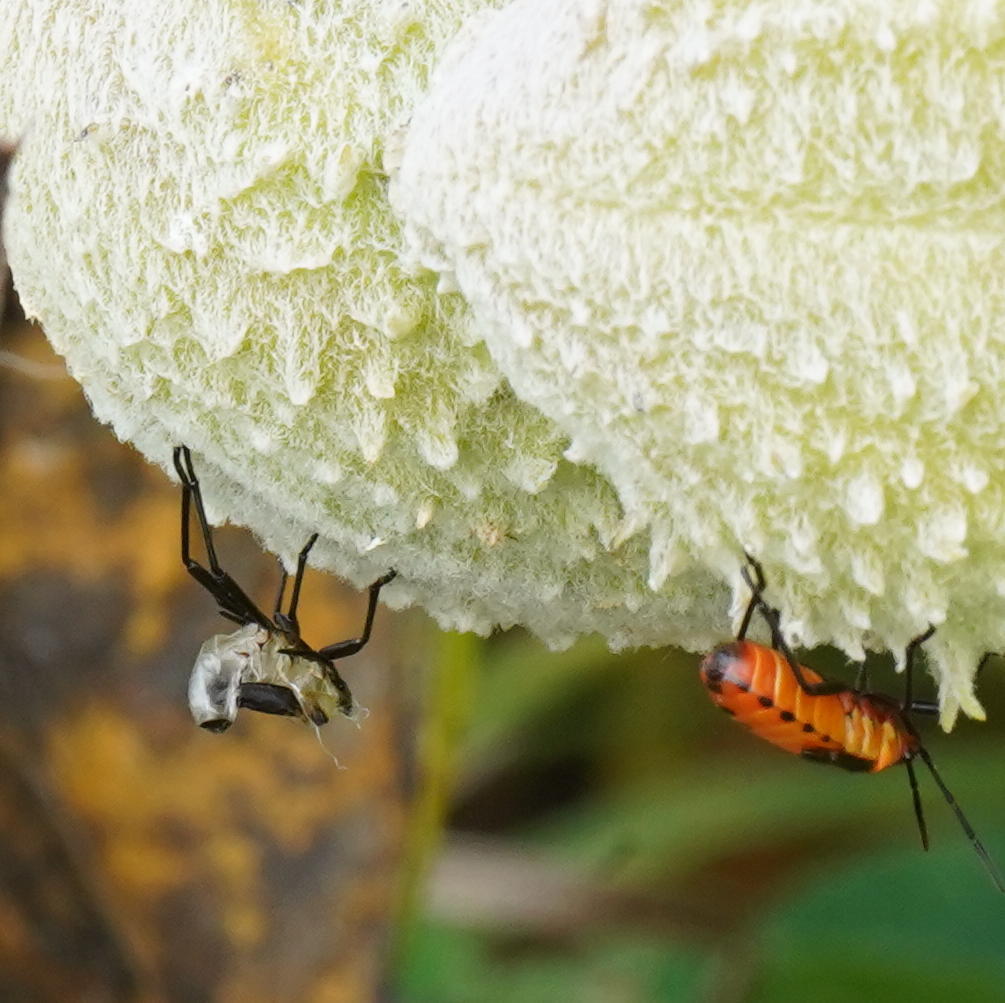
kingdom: Animalia
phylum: Arthropoda
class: Insecta
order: Hemiptera
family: Lygaeidae
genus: Oncopeltus
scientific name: Oncopeltus fasciatus
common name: Large milkweed bug
